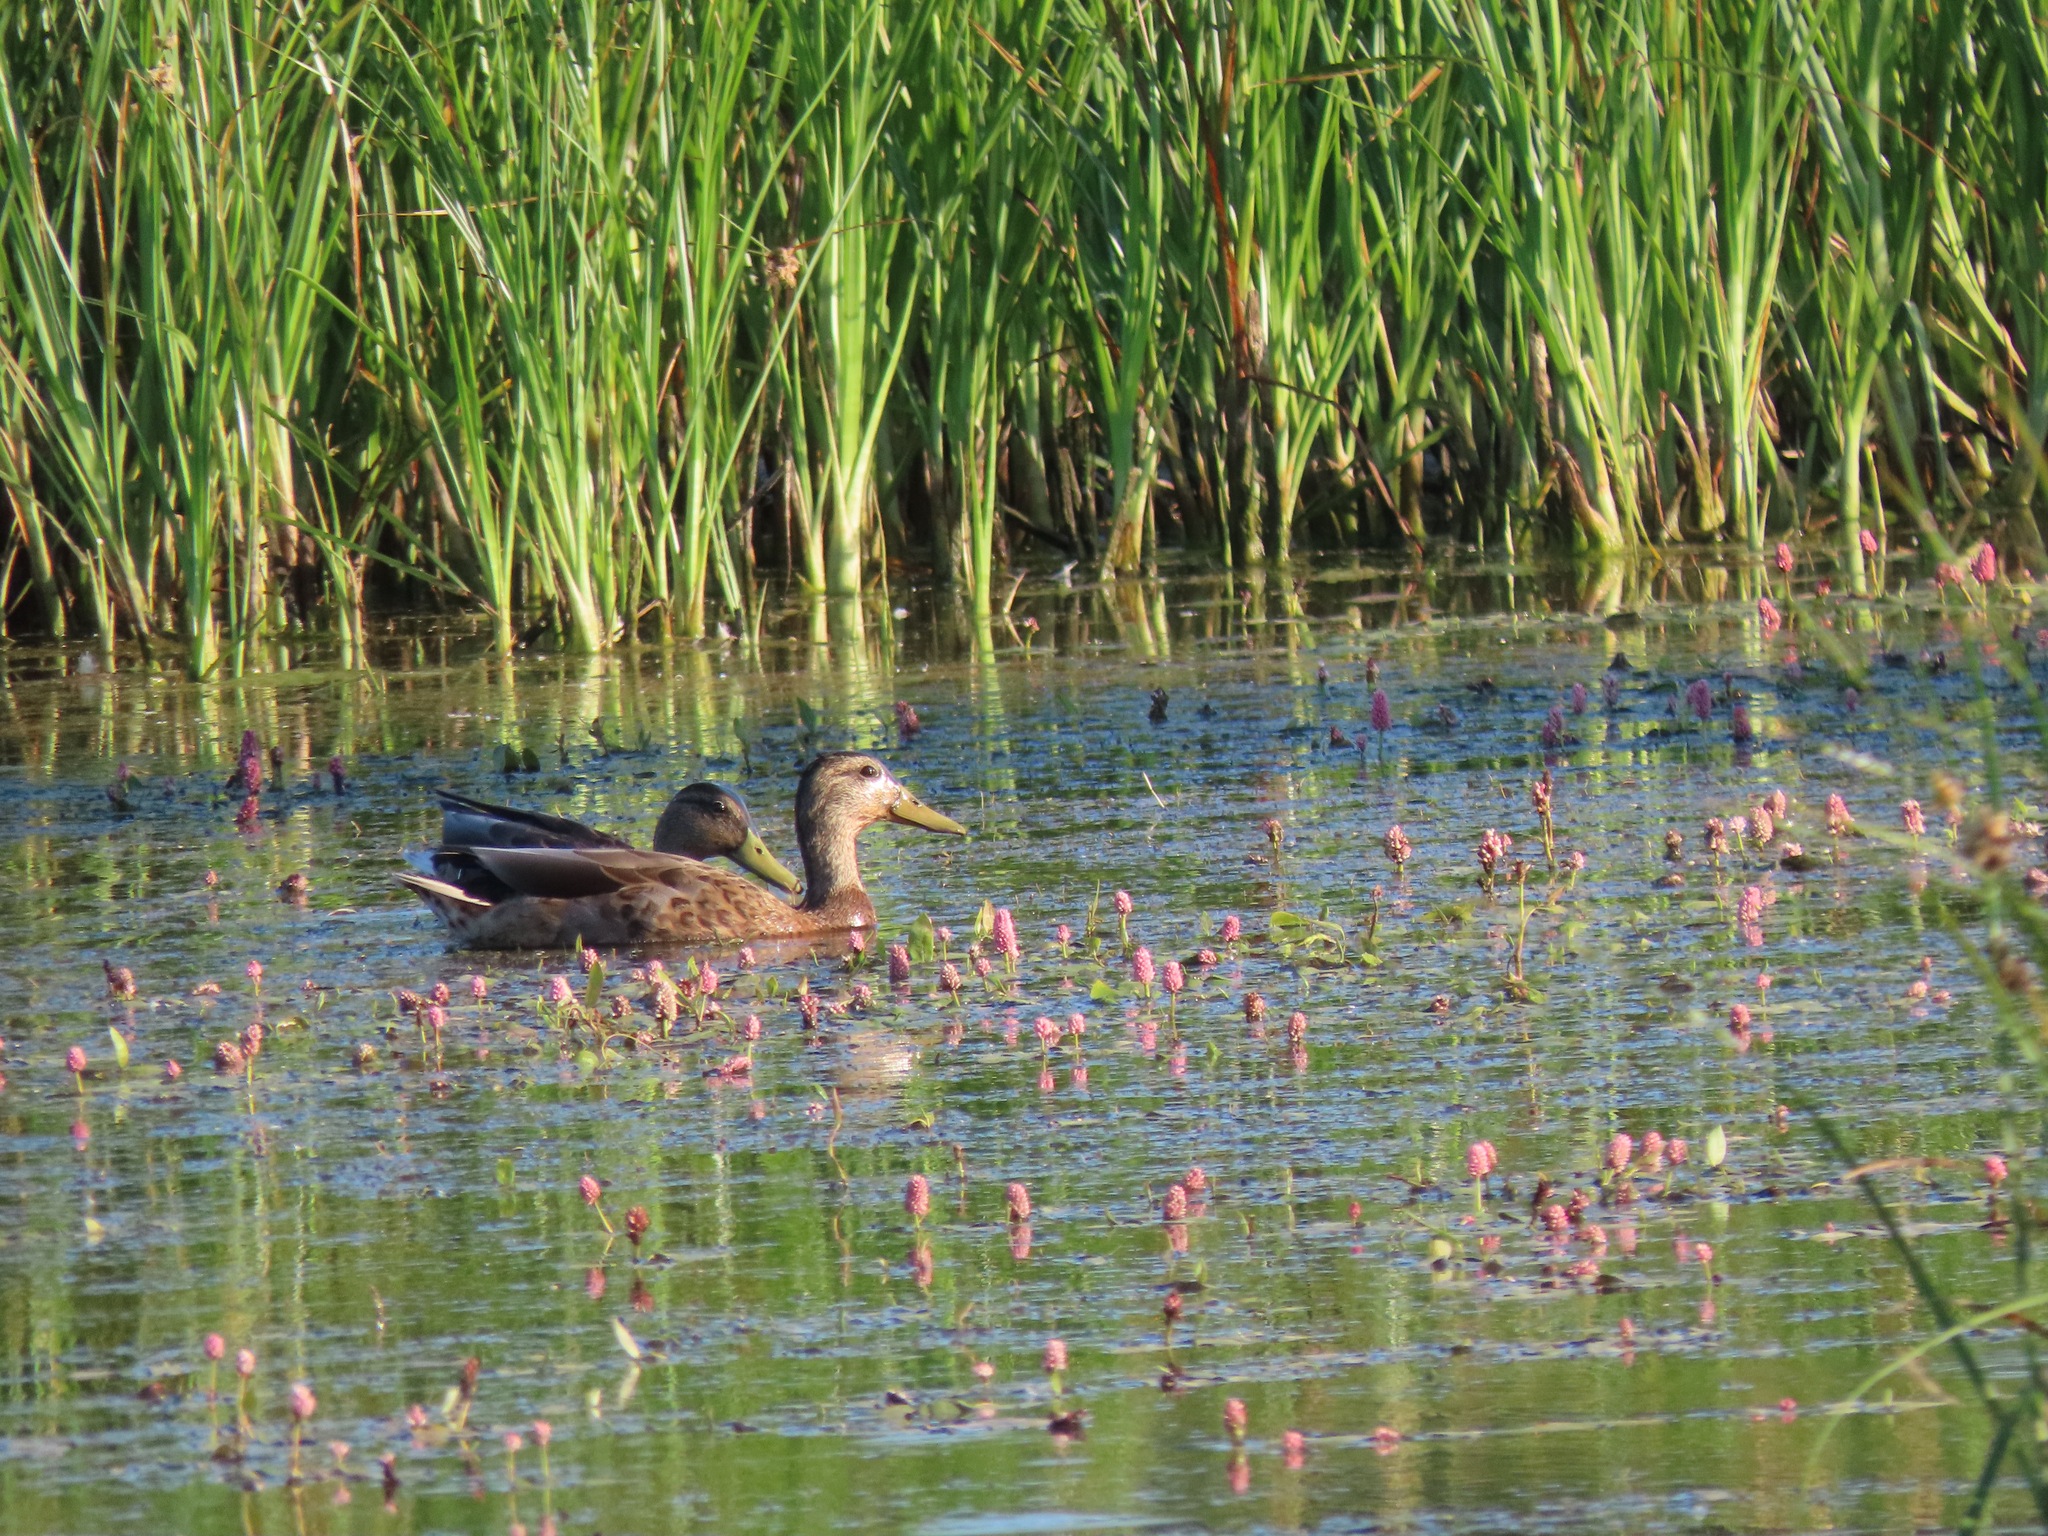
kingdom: Animalia
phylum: Chordata
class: Aves
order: Anseriformes
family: Anatidae
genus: Anas
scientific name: Anas platyrhynchos
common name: Mallard
